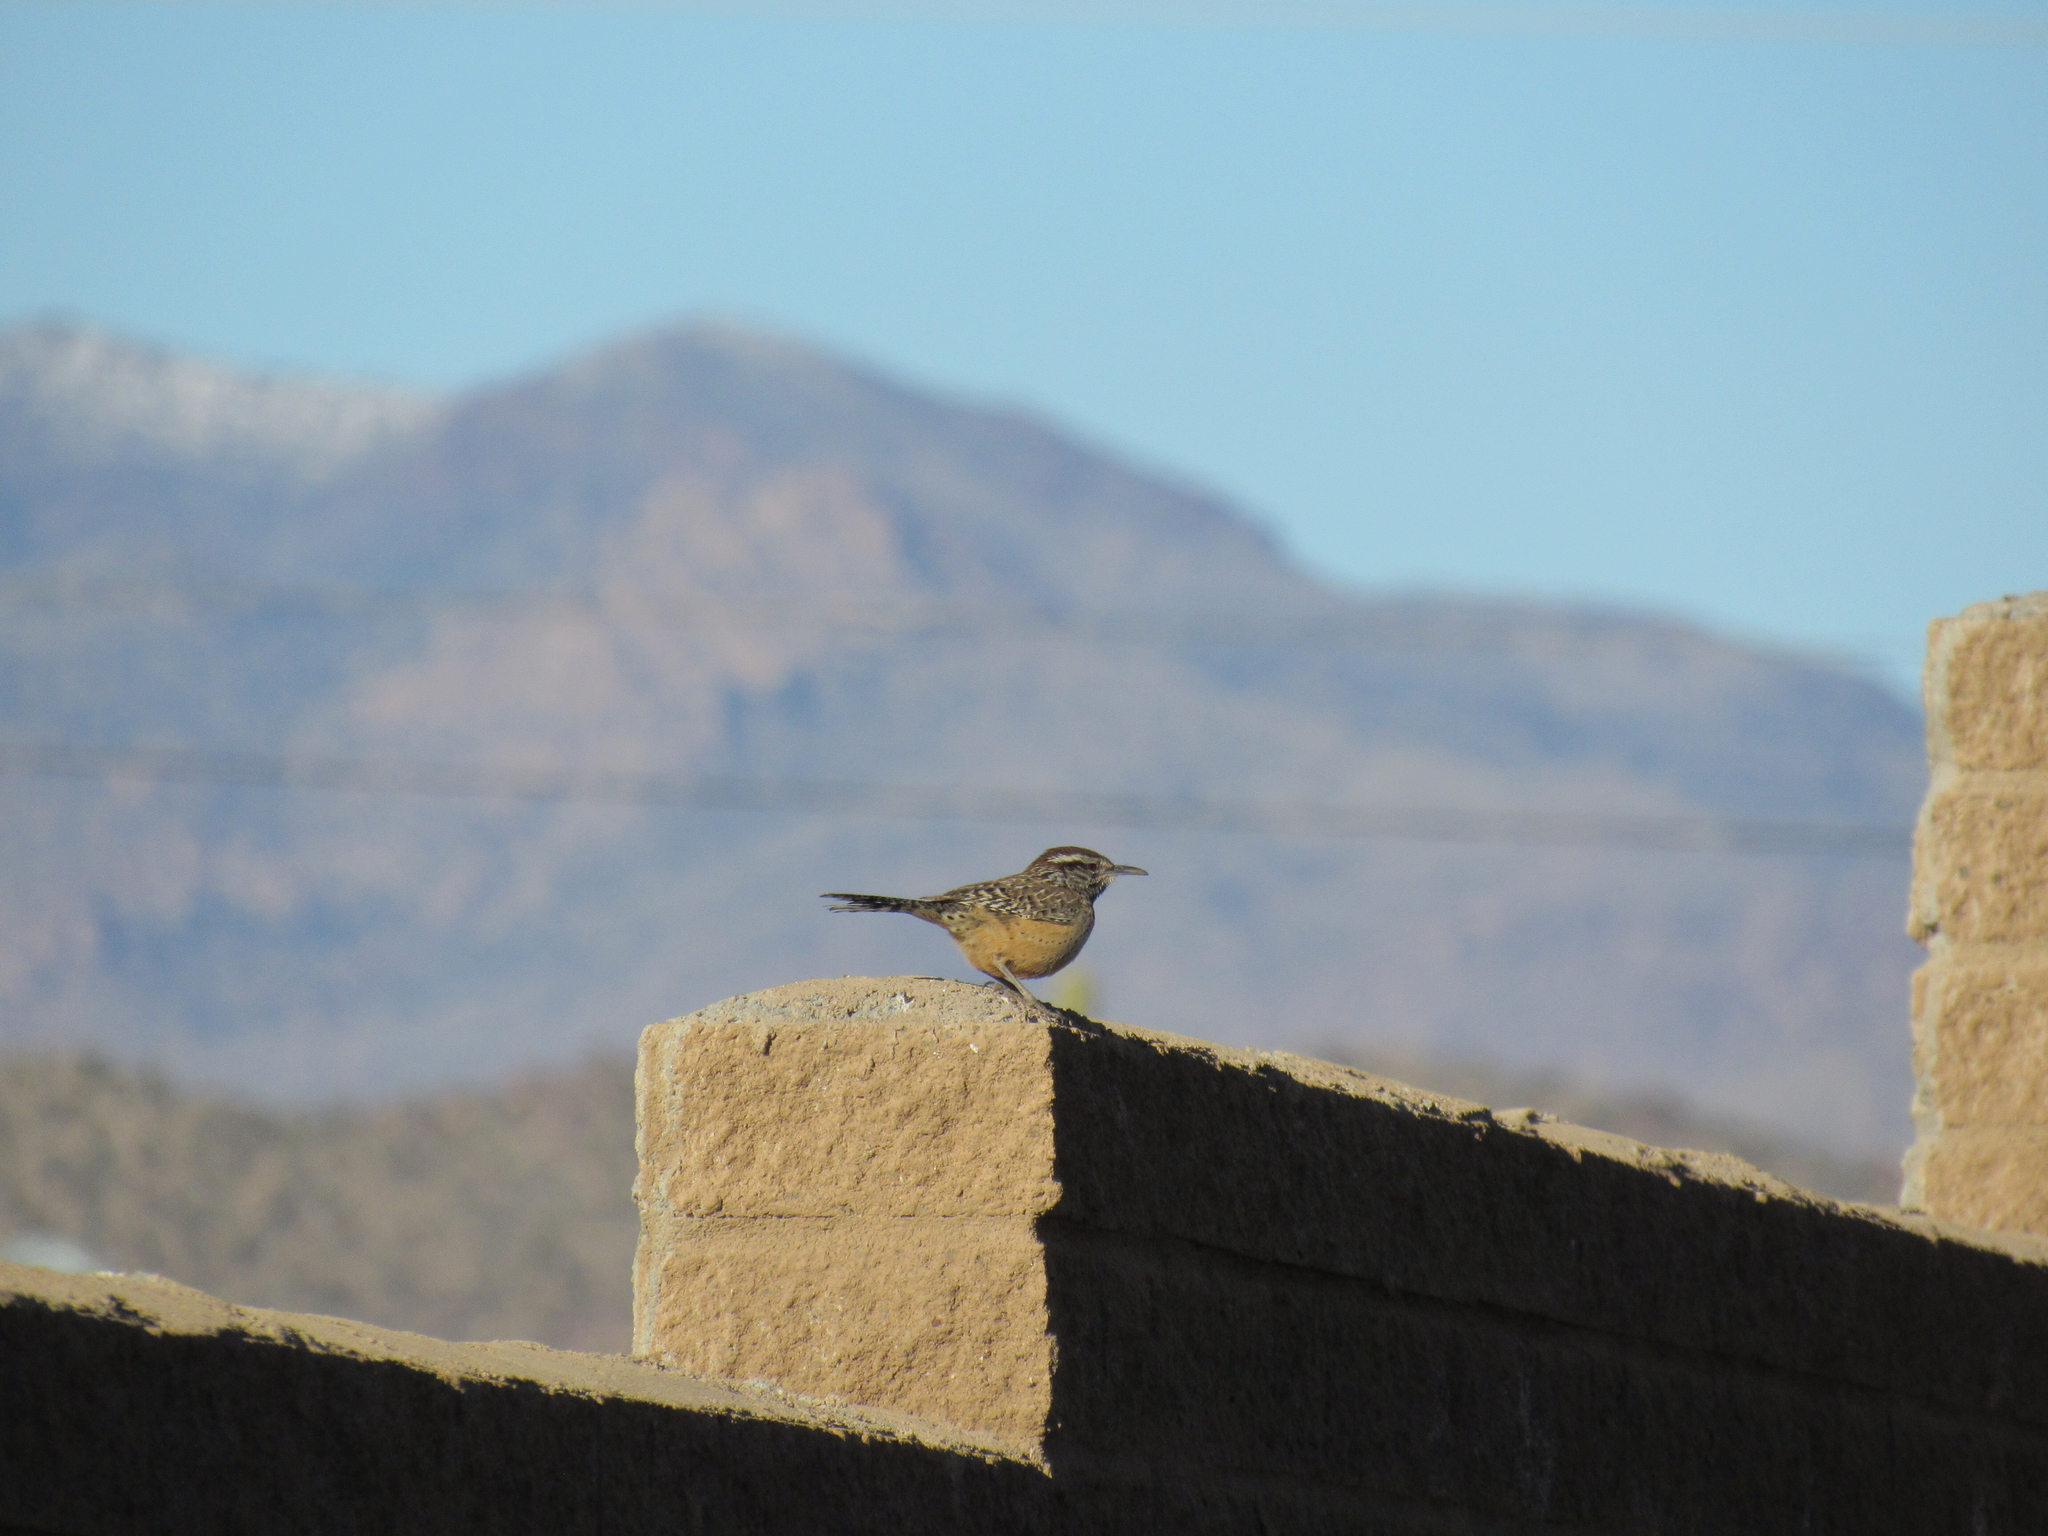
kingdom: Animalia
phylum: Chordata
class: Aves
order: Passeriformes
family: Troglodytidae
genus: Campylorhynchus
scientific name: Campylorhynchus brunneicapillus
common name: Cactus wren
